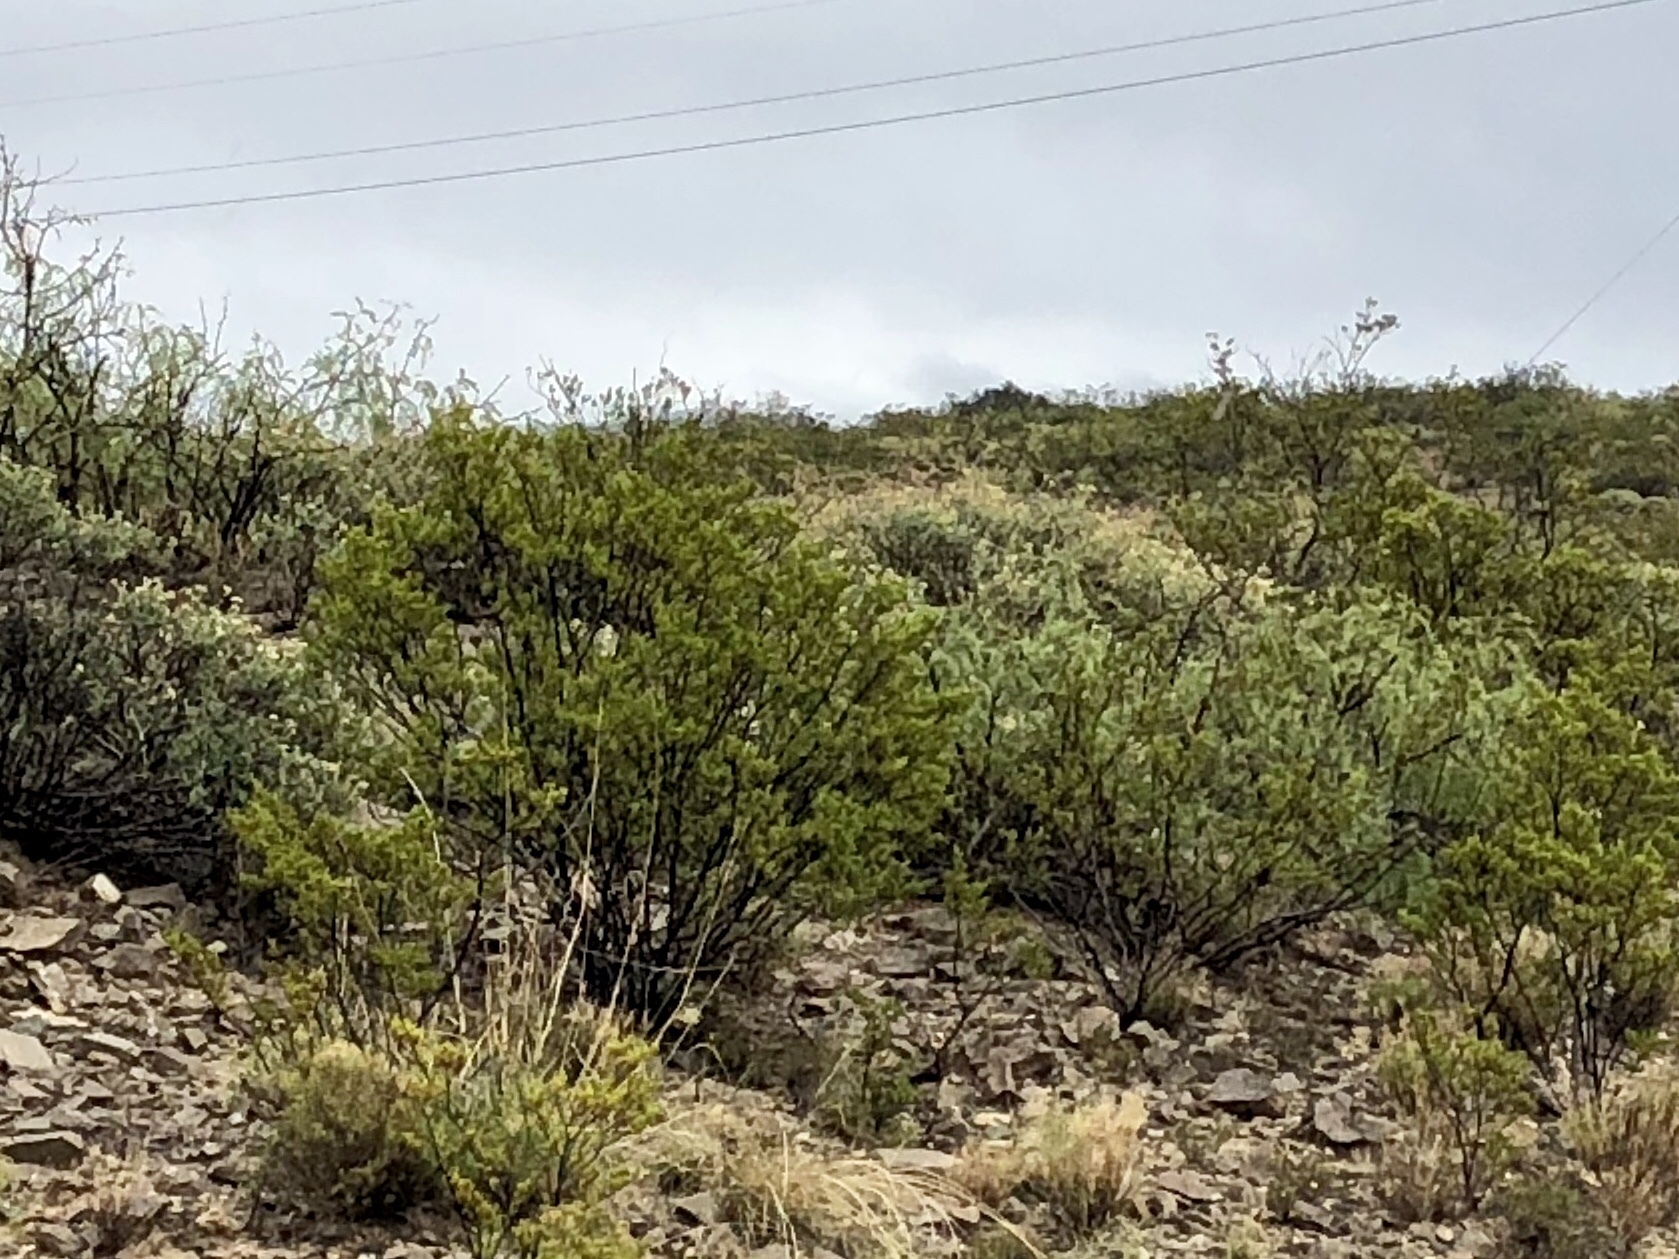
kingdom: Plantae
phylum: Tracheophyta
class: Magnoliopsida
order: Zygophyllales
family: Zygophyllaceae
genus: Larrea
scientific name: Larrea tridentata
